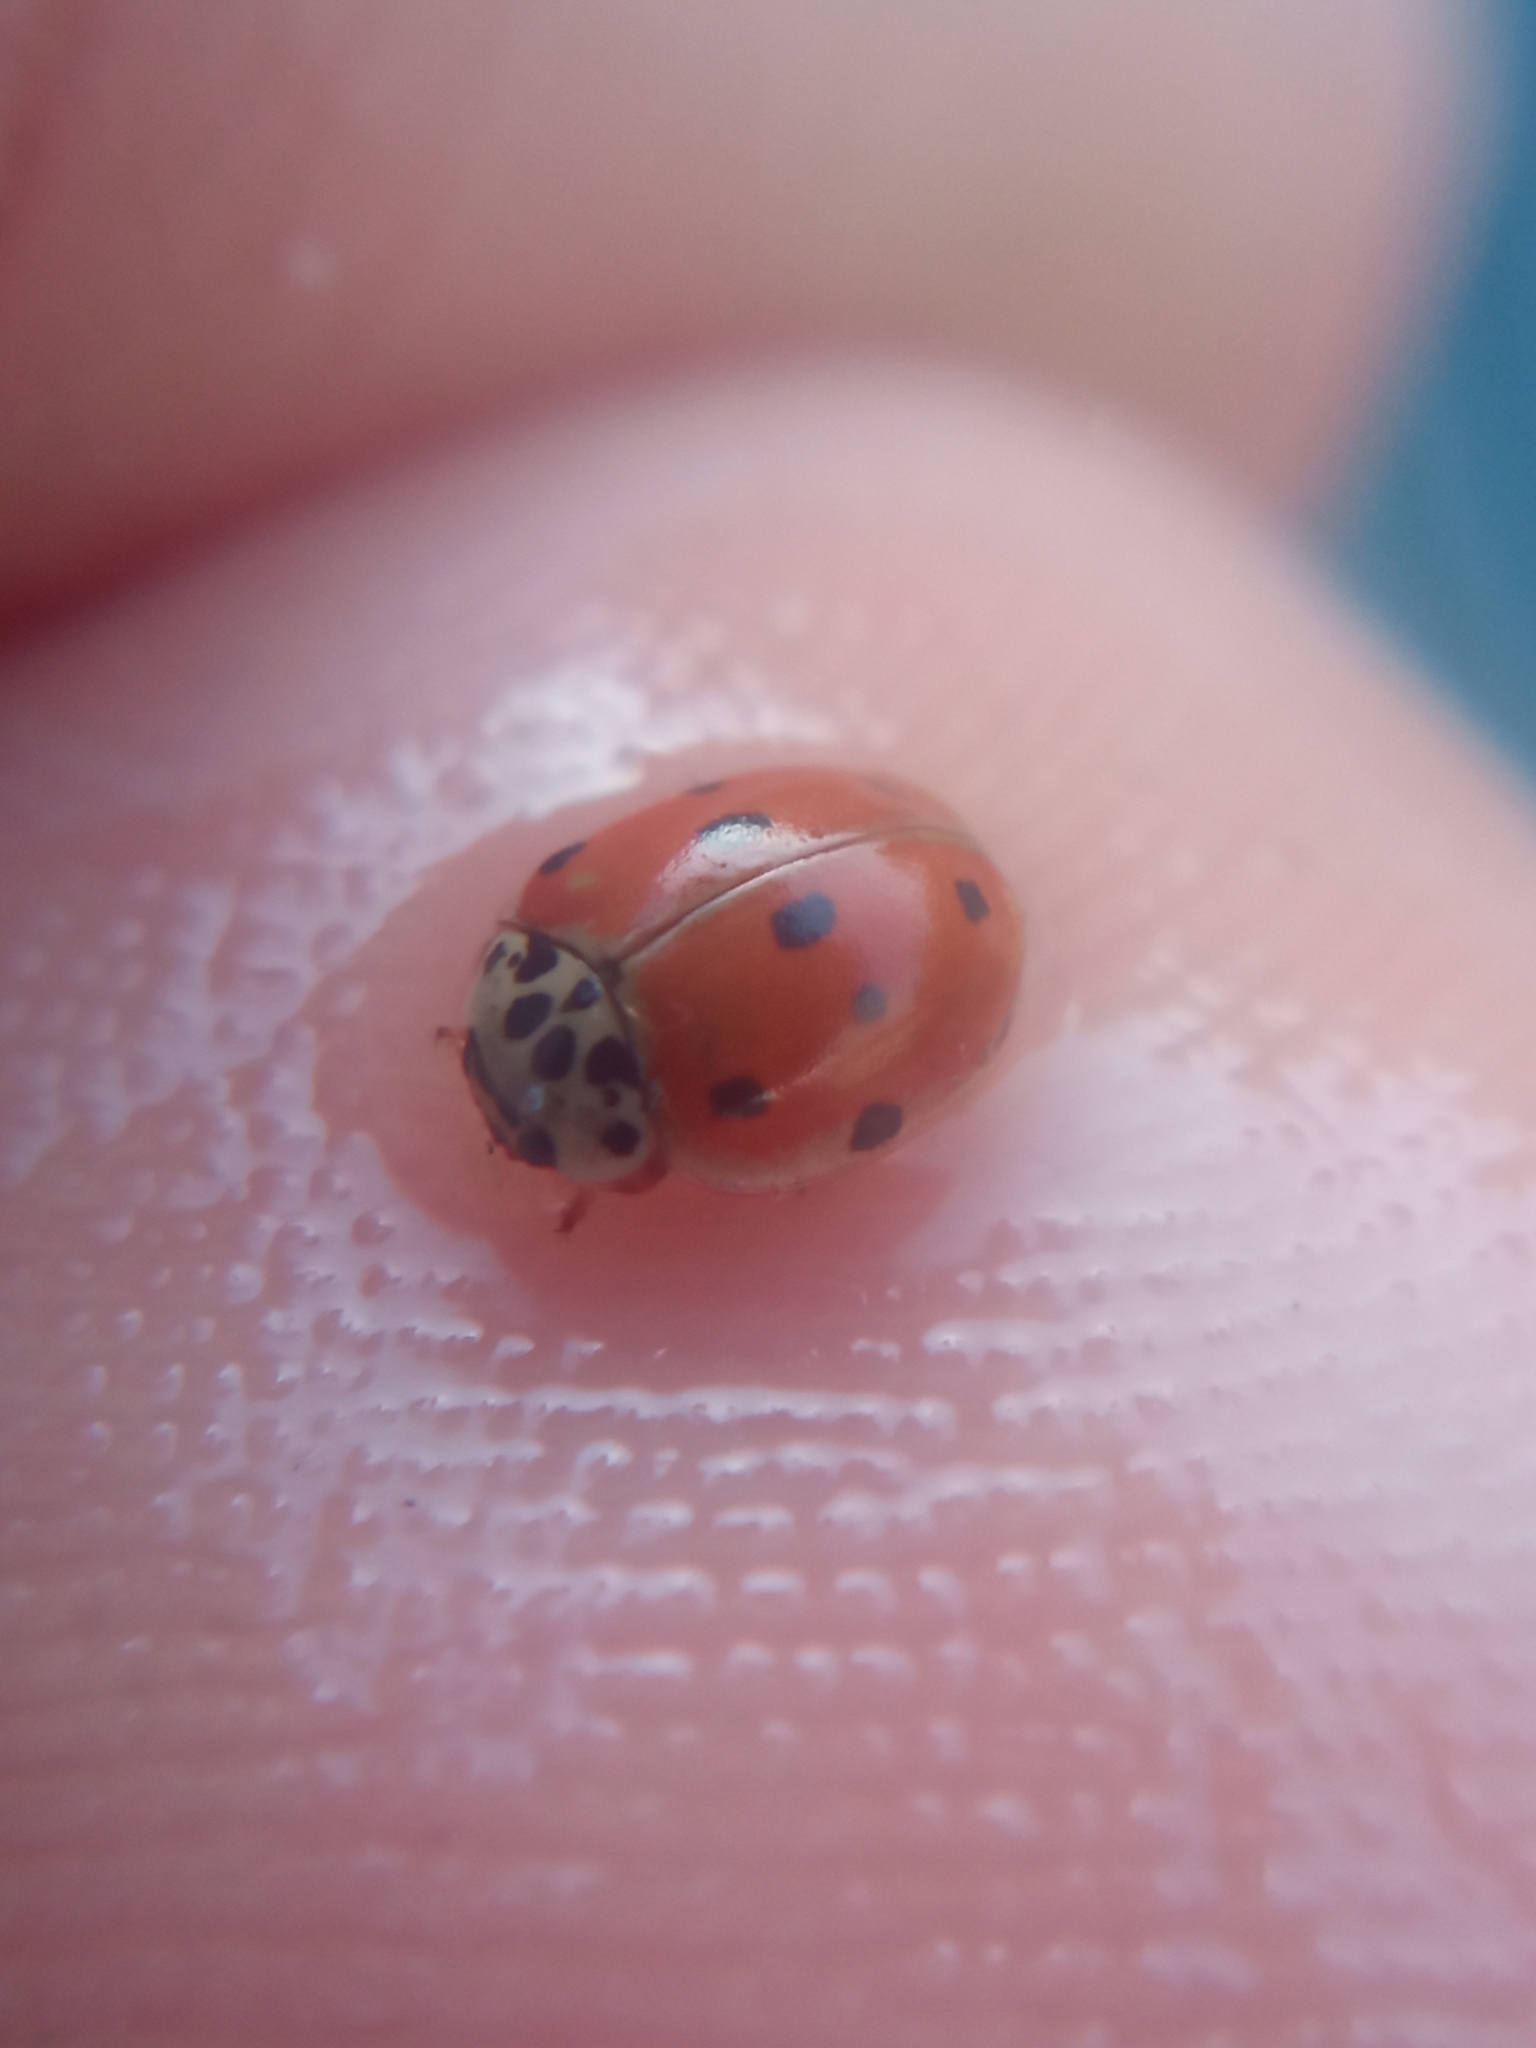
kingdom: Animalia
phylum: Arthropoda
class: Insecta
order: Coleoptera
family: Coccinellidae
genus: Adalia
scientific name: Adalia decempunctata
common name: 10-spot ladybird
